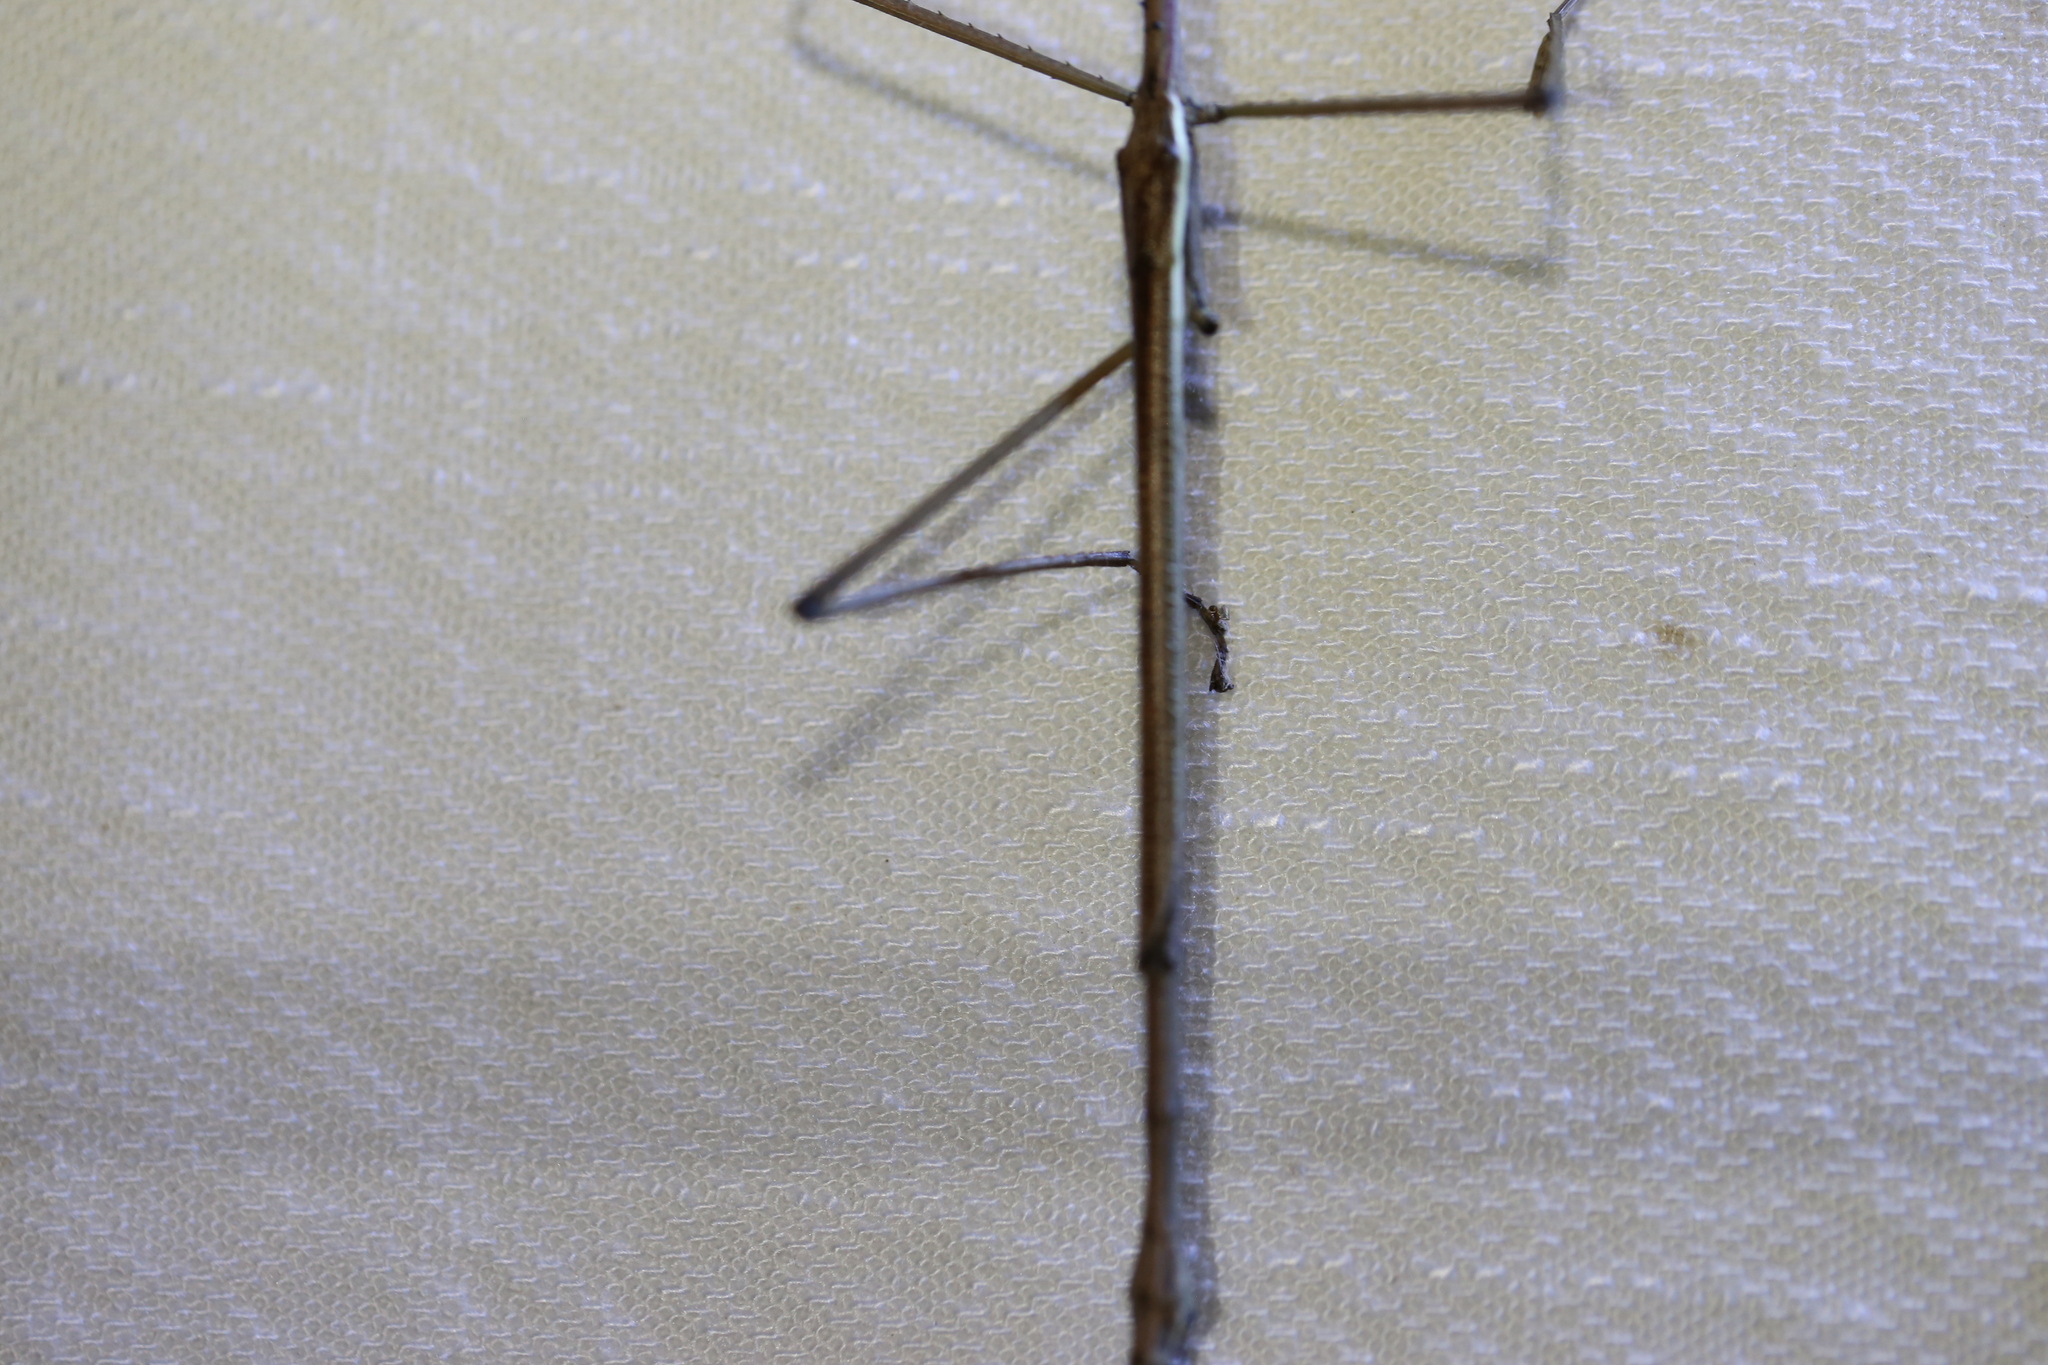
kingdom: Animalia
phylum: Arthropoda
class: Insecta
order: Phasmida
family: Phasmatidae
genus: Anchiale
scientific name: Anchiale austrotessulata
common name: Tessellated stick-insect
